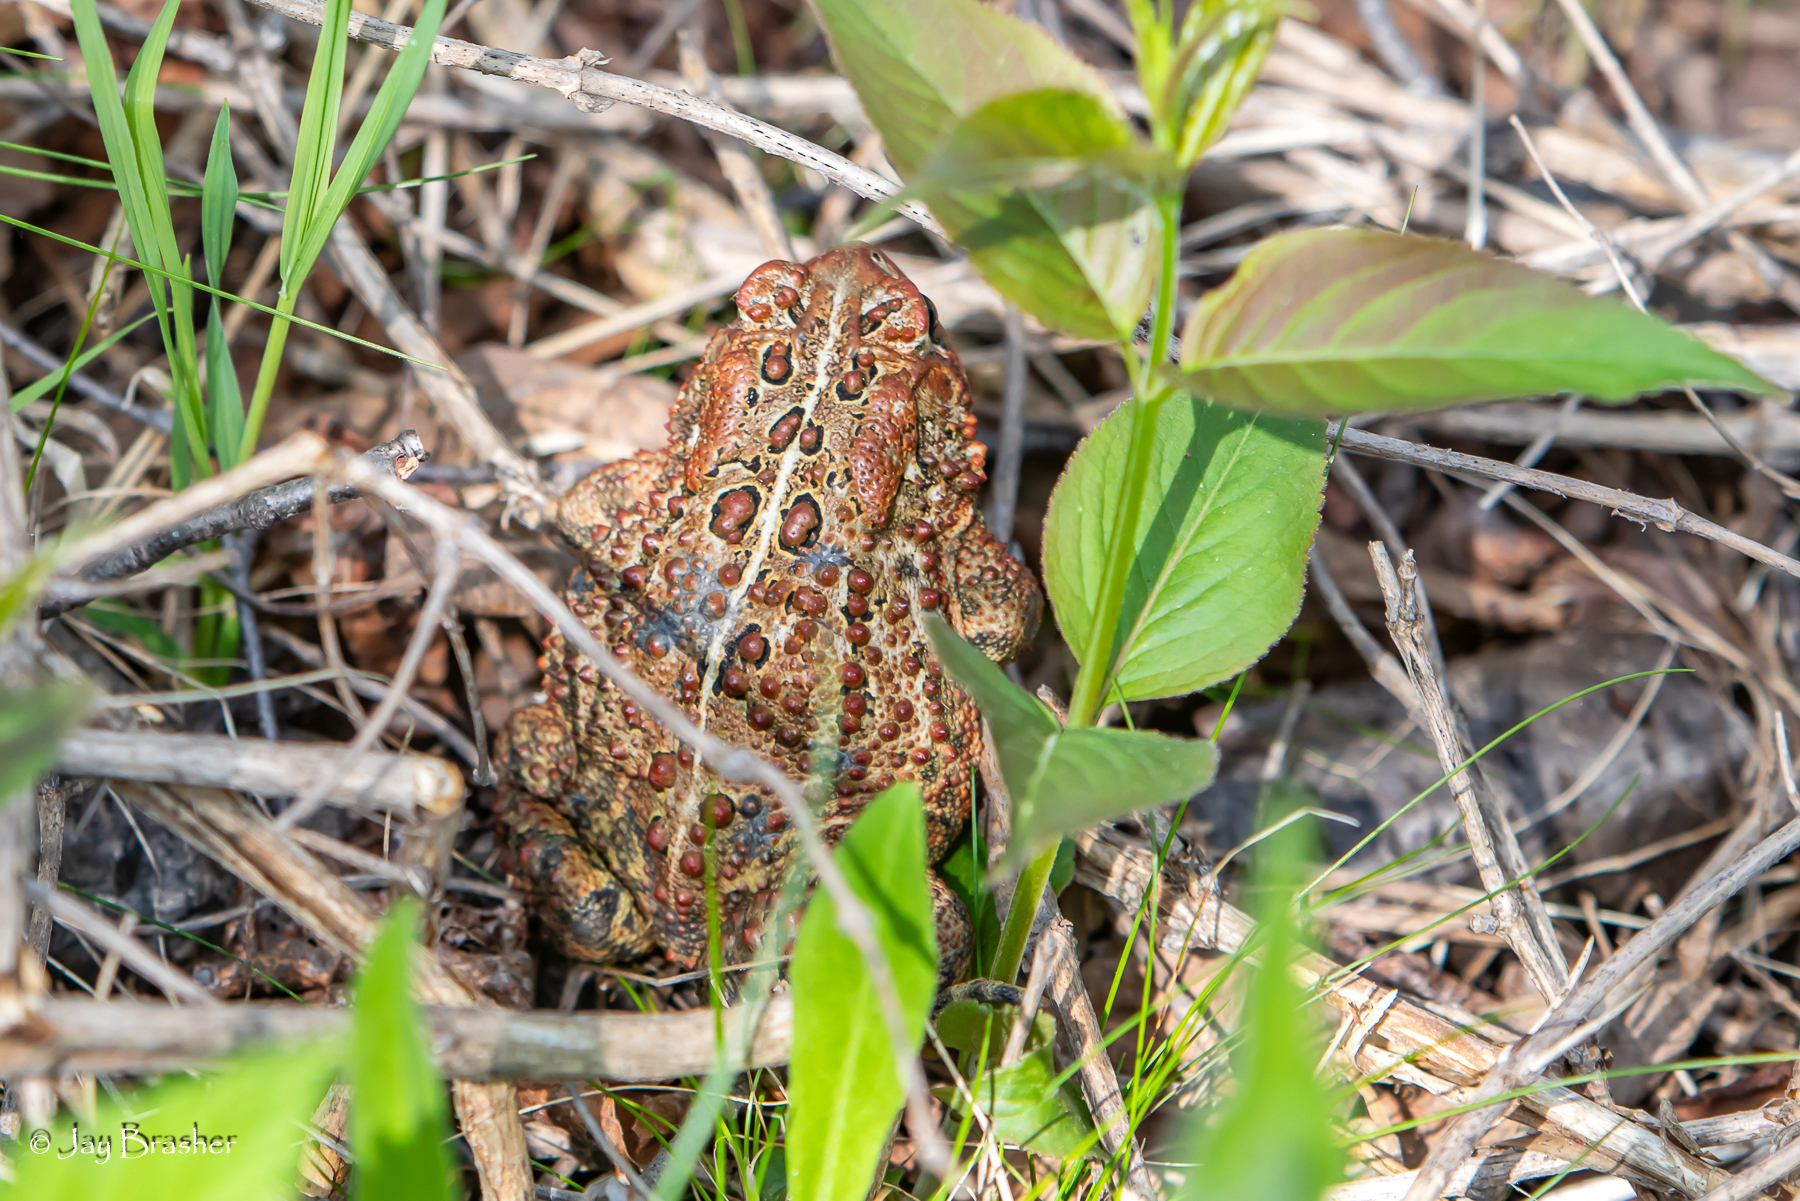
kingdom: Animalia
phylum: Chordata
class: Amphibia
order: Anura
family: Bufonidae
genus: Anaxyrus
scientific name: Anaxyrus americanus
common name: American toad
